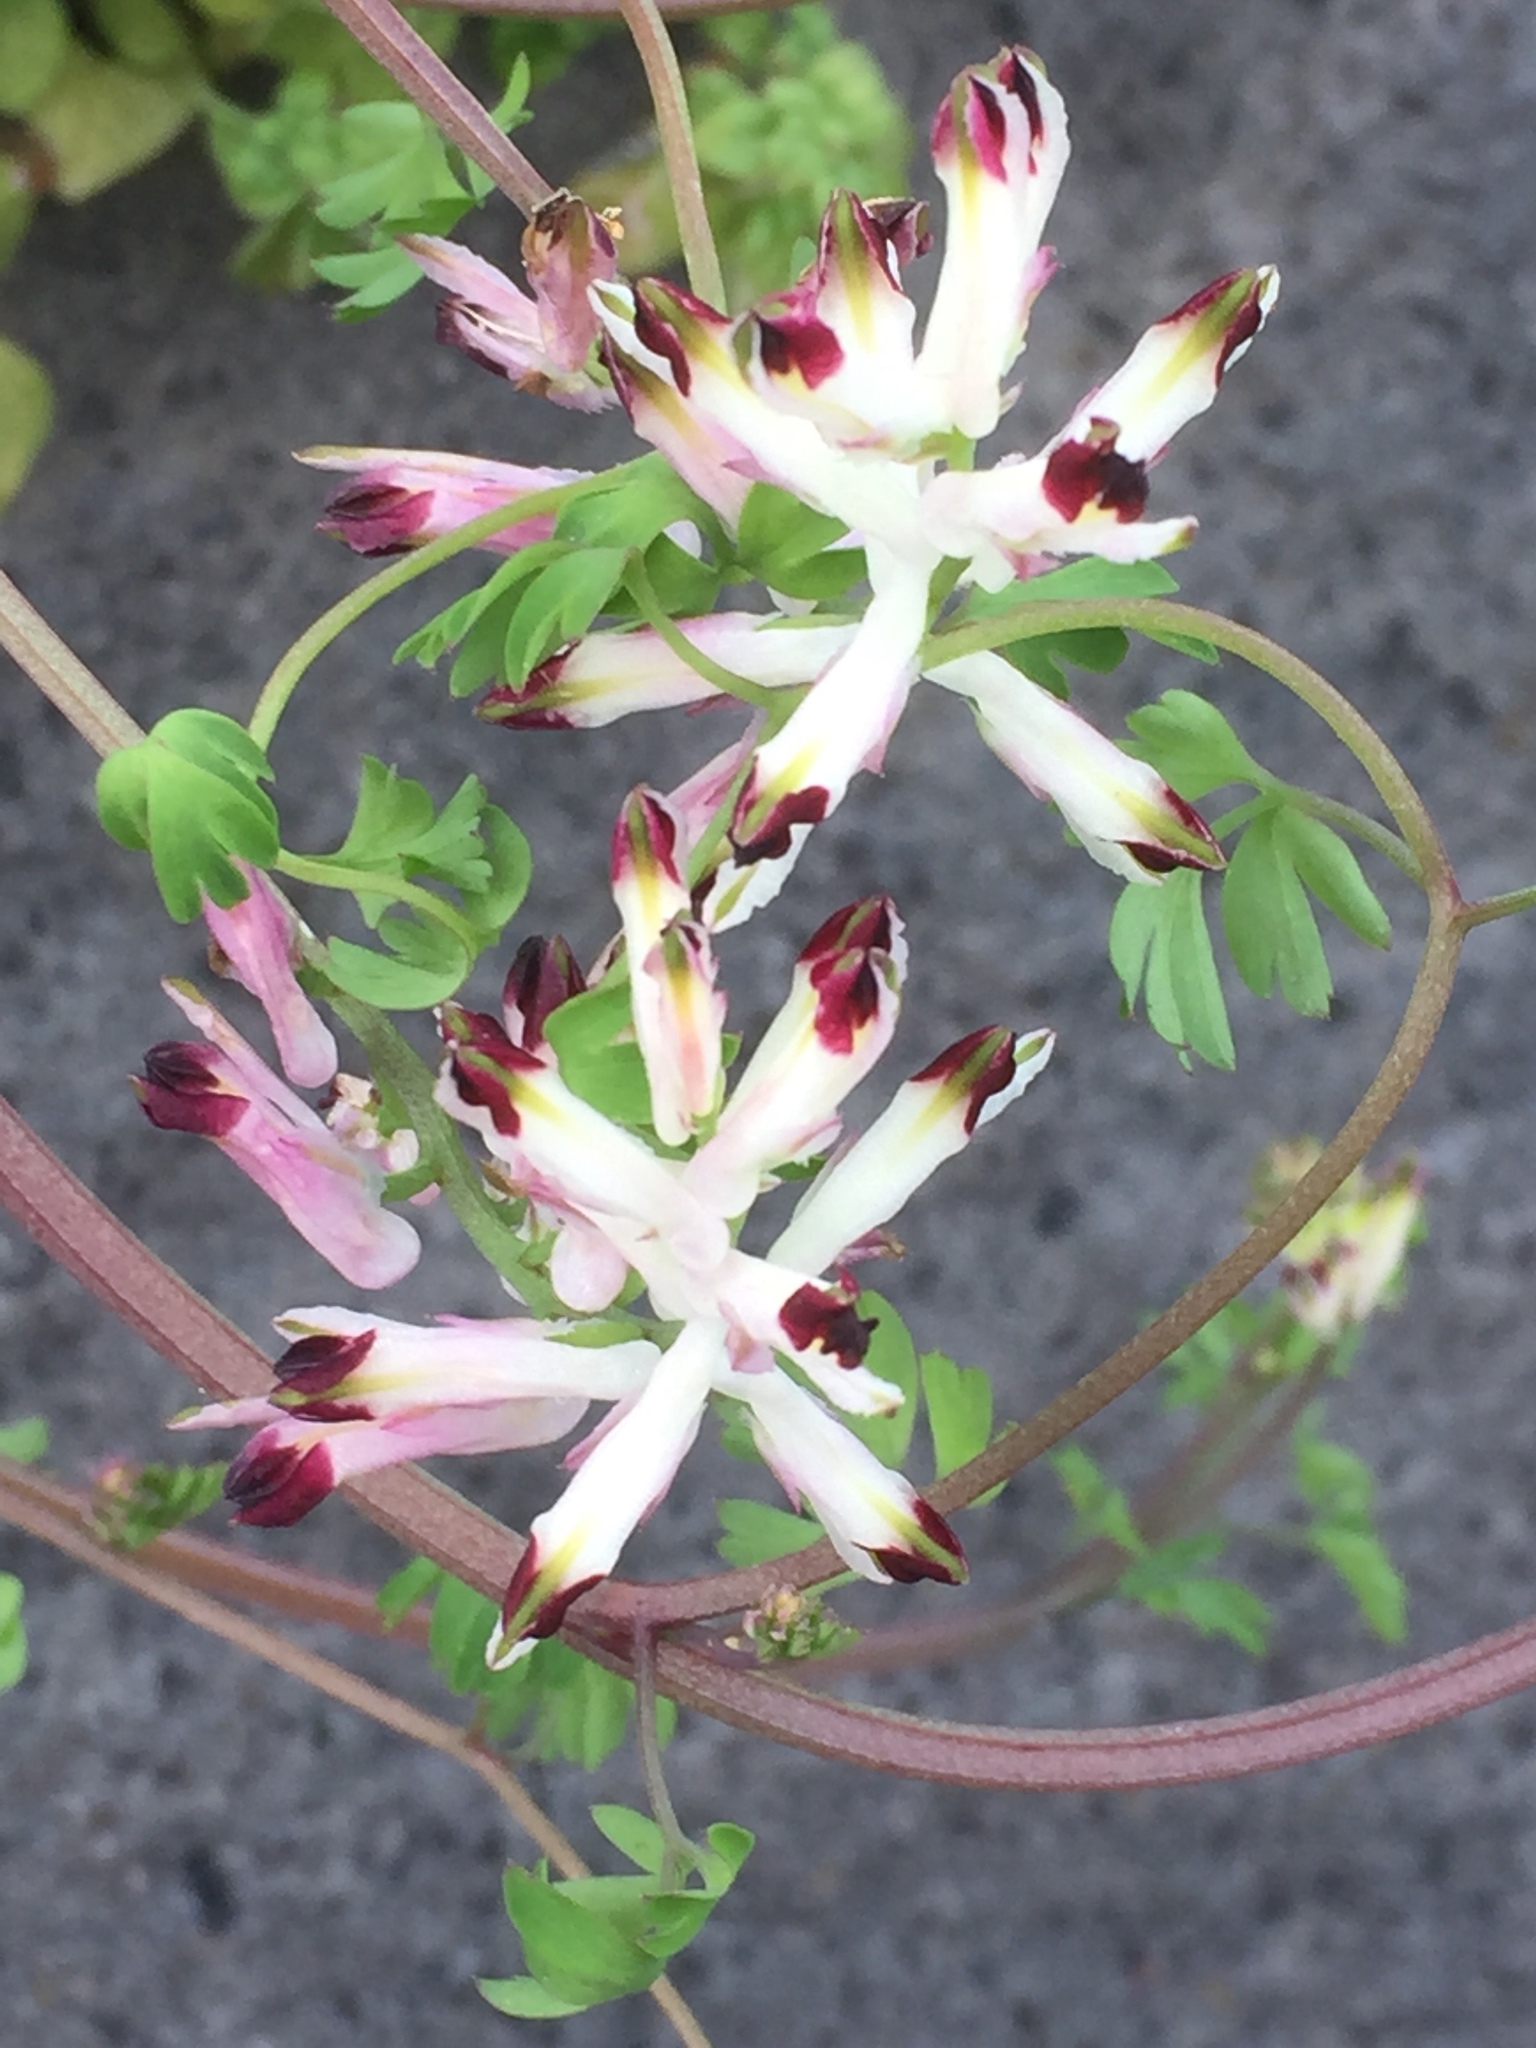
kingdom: Plantae
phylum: Tracheophyta
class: Magnoliopsida
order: Ranunculales
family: Papaveraceae
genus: Fumaria
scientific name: Fumaria capreolata
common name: White ramping-fumitory
